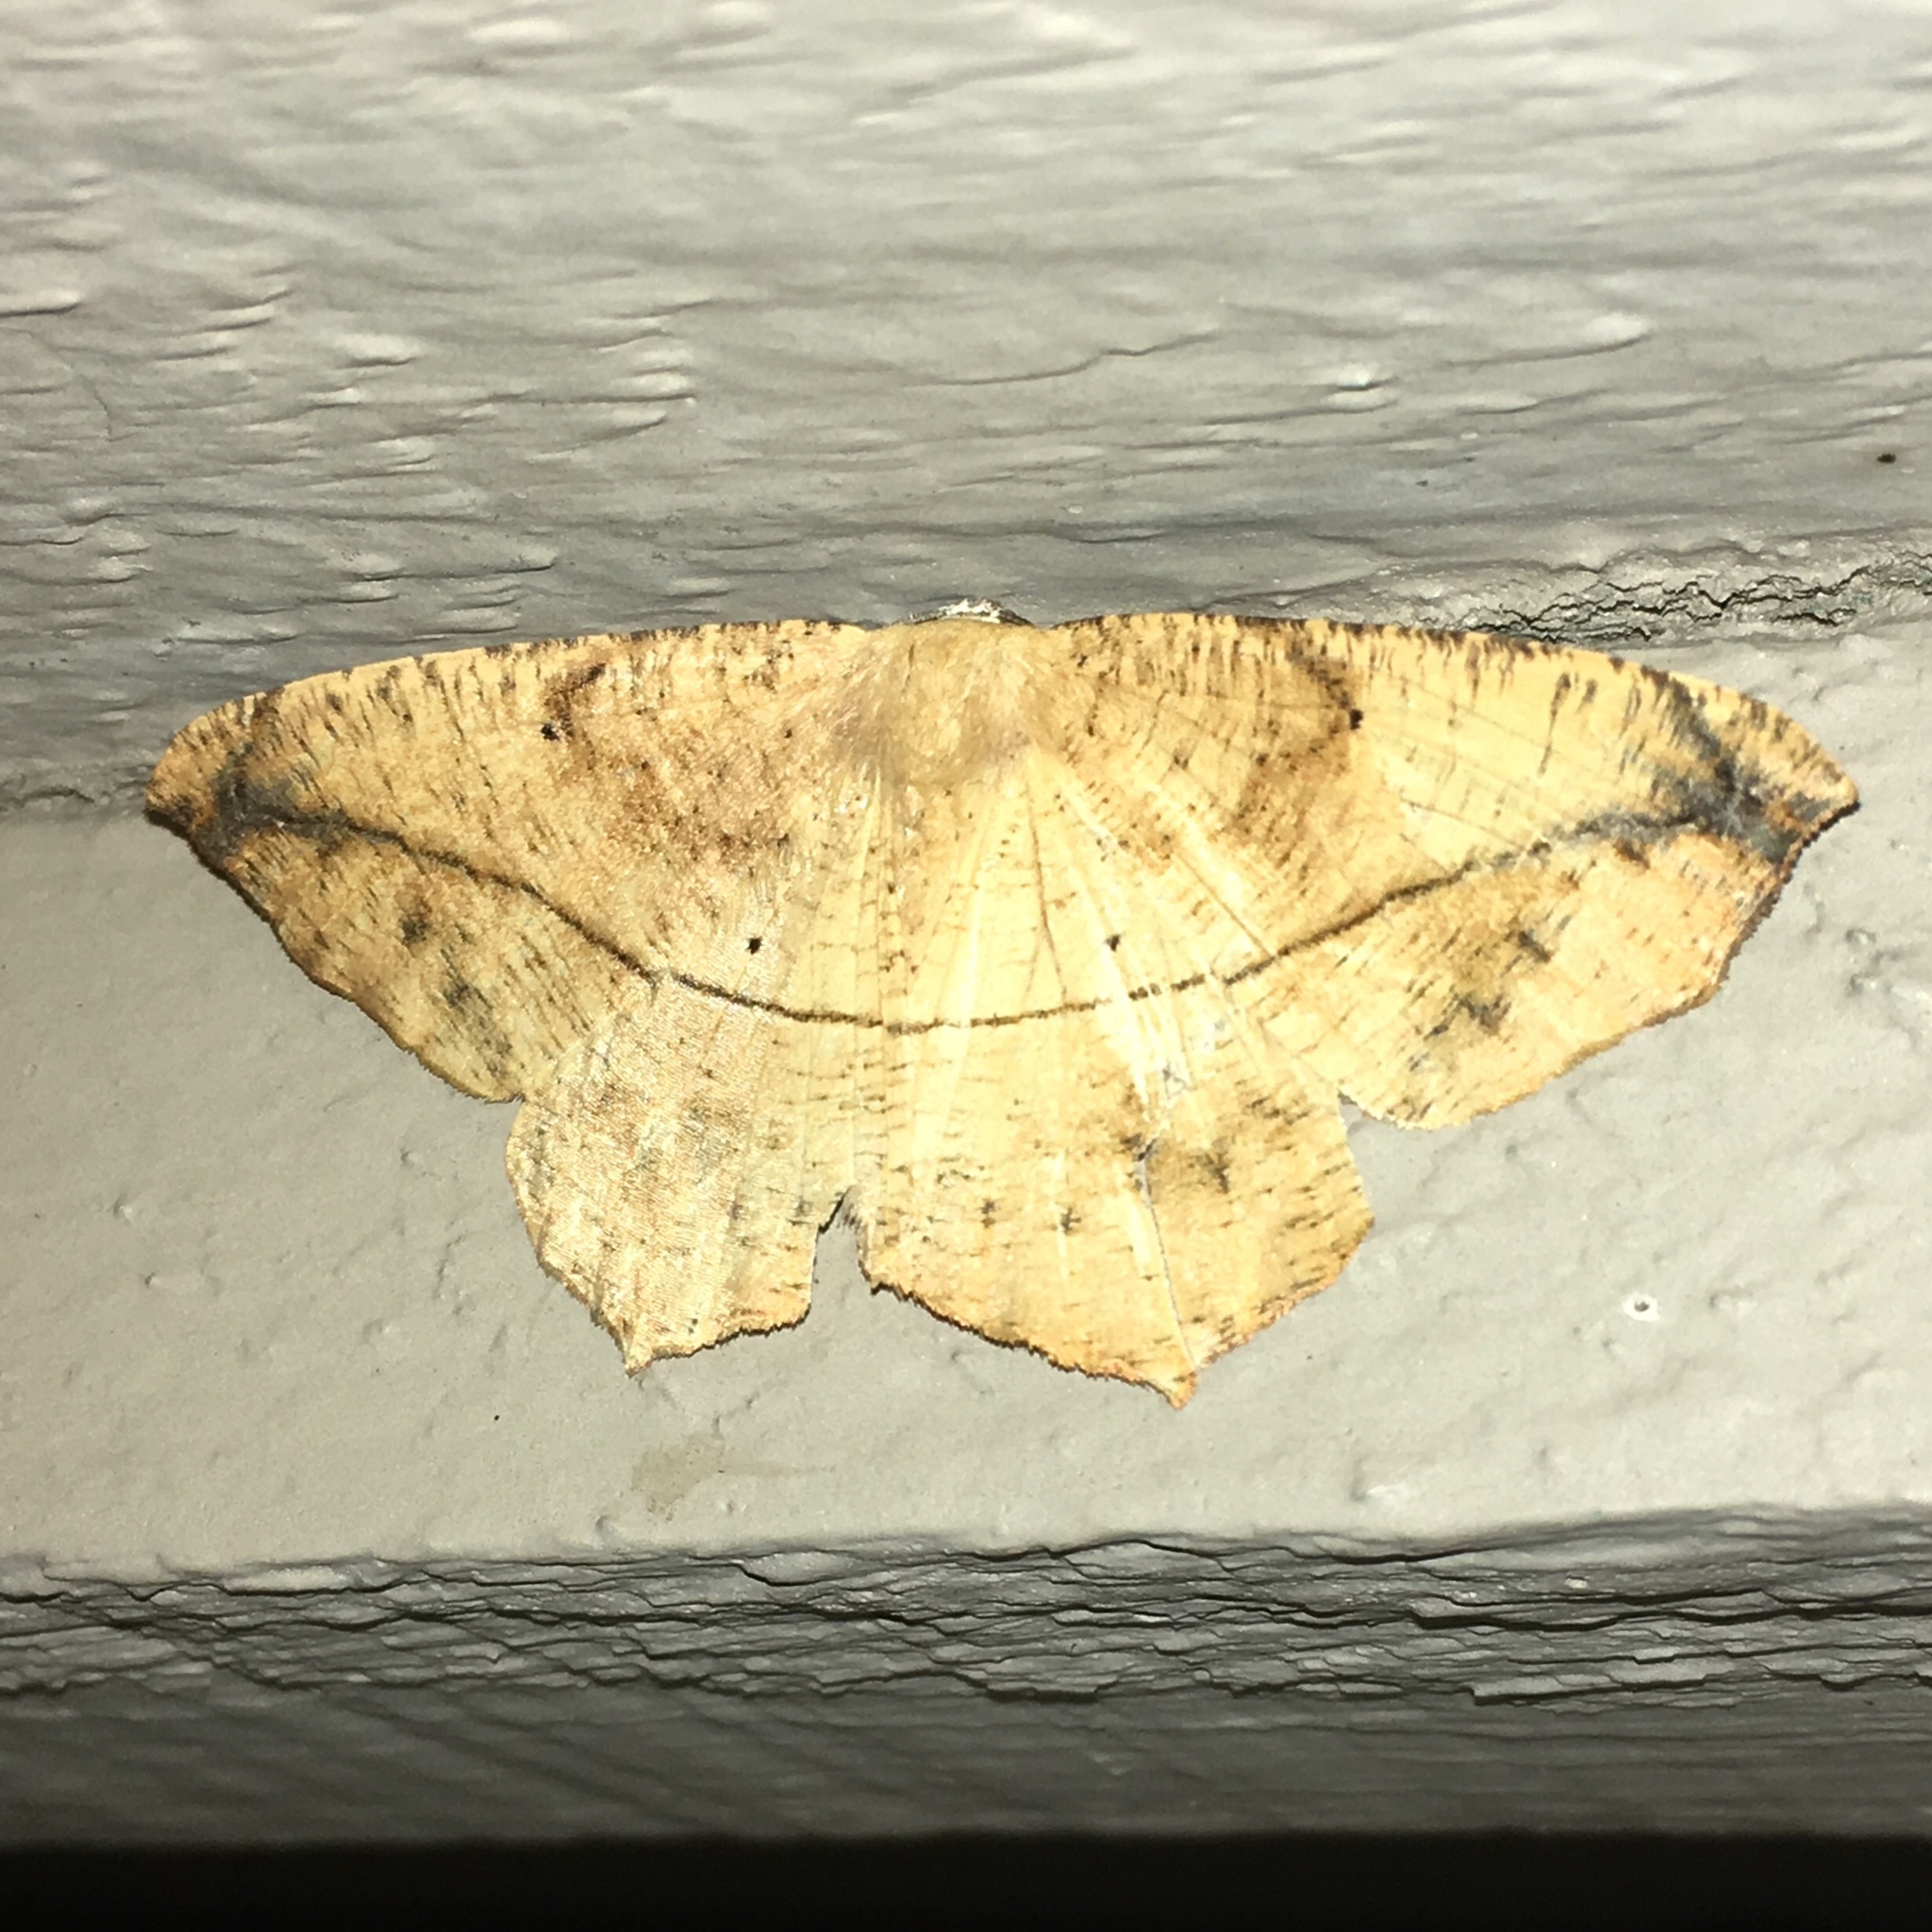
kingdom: Animalia
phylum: Arthropoda
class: Insecta
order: Lepidoptera
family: Geometridae
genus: Prochoerodes
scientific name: Prochoerodes lineola
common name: Large maple spanworm
